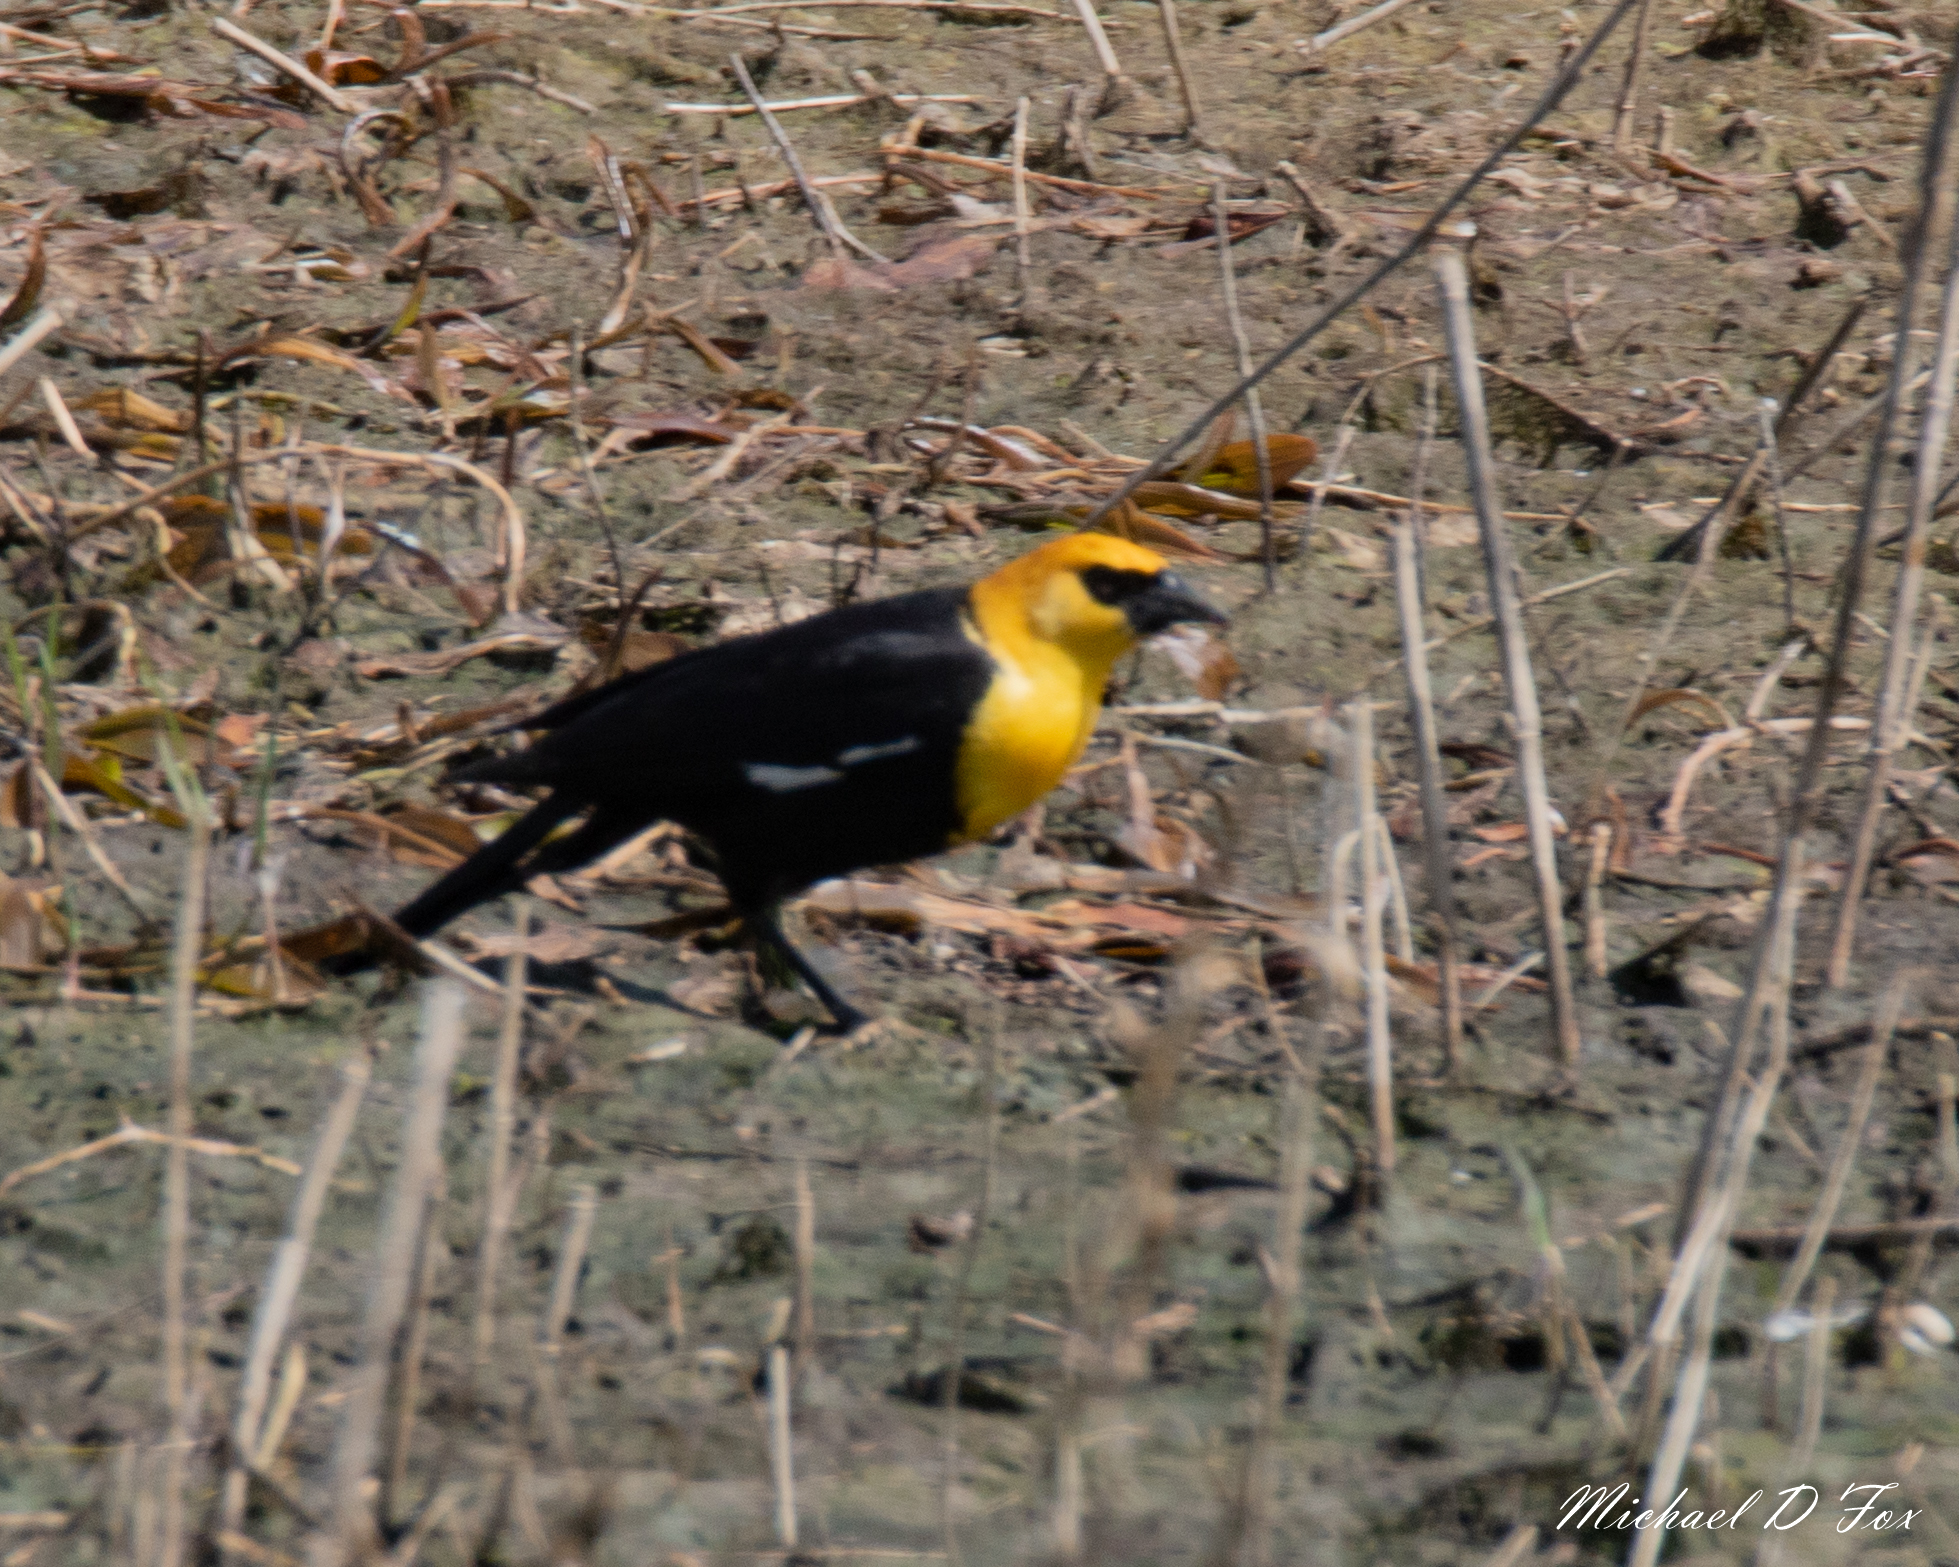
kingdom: Animalia
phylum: Chordata
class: Aves
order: Passeriformes
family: Icteridae
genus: Xanthocephalus
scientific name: Xanthocephalus xanthocephalus
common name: Yellow-headed blackbird
